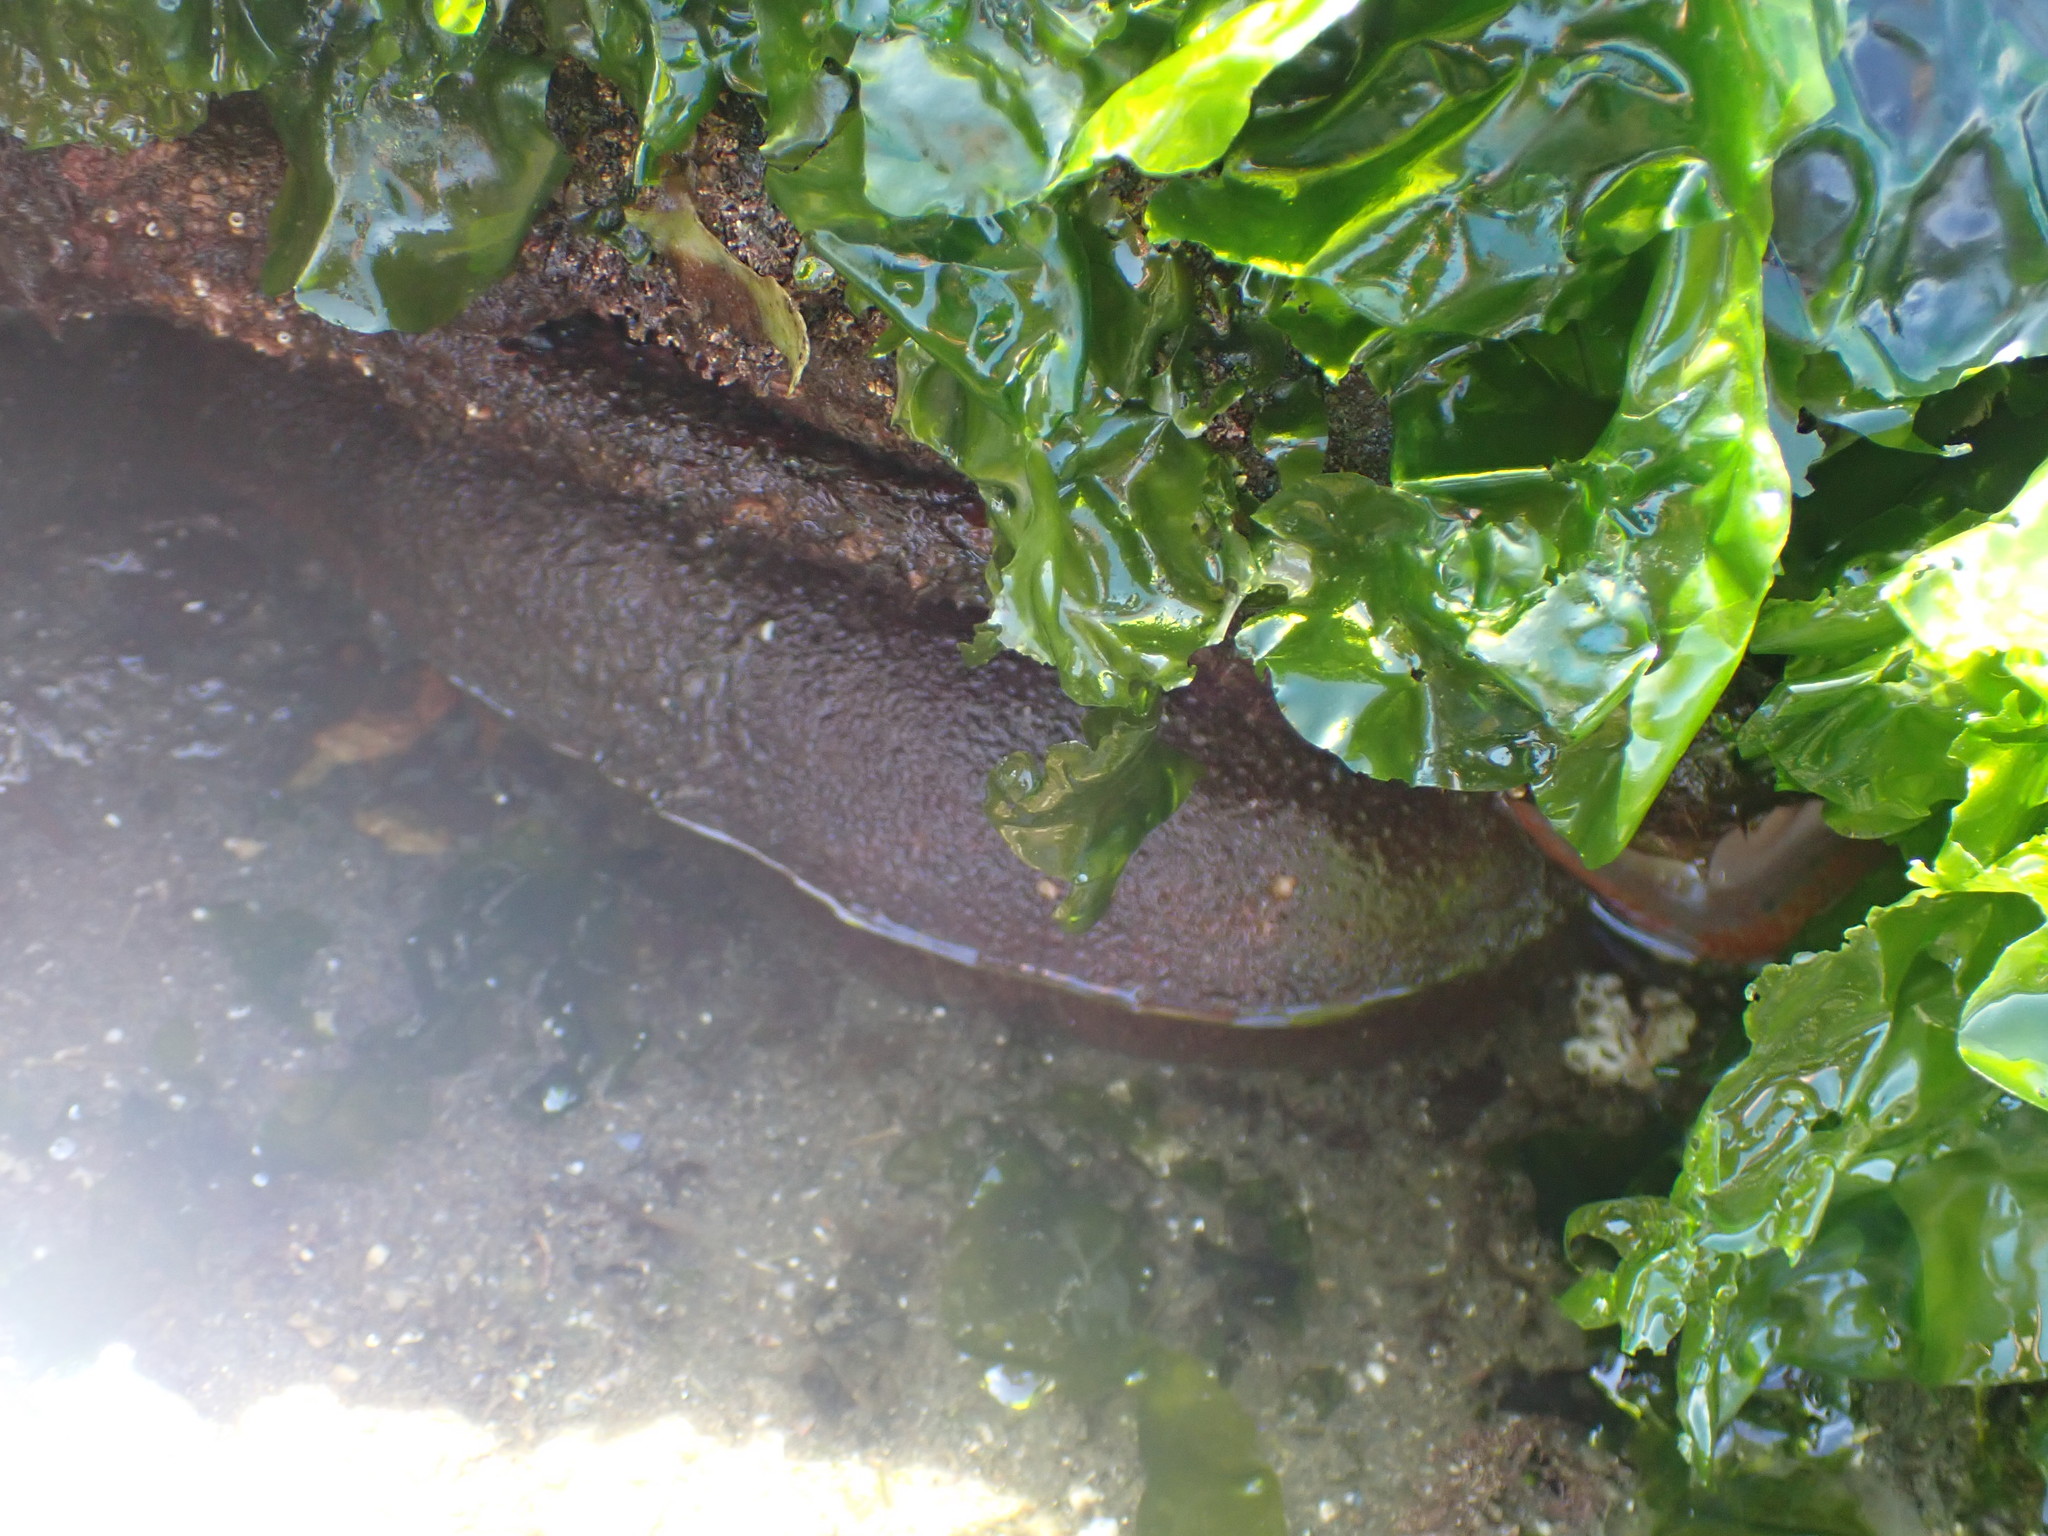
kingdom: Animalia
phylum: Mollusca
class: Polyplacophora
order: Chitonida
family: Acanthochitonidae
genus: Cryptochiton
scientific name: Cryptochiton stelleri
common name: Giant pacific chiton
